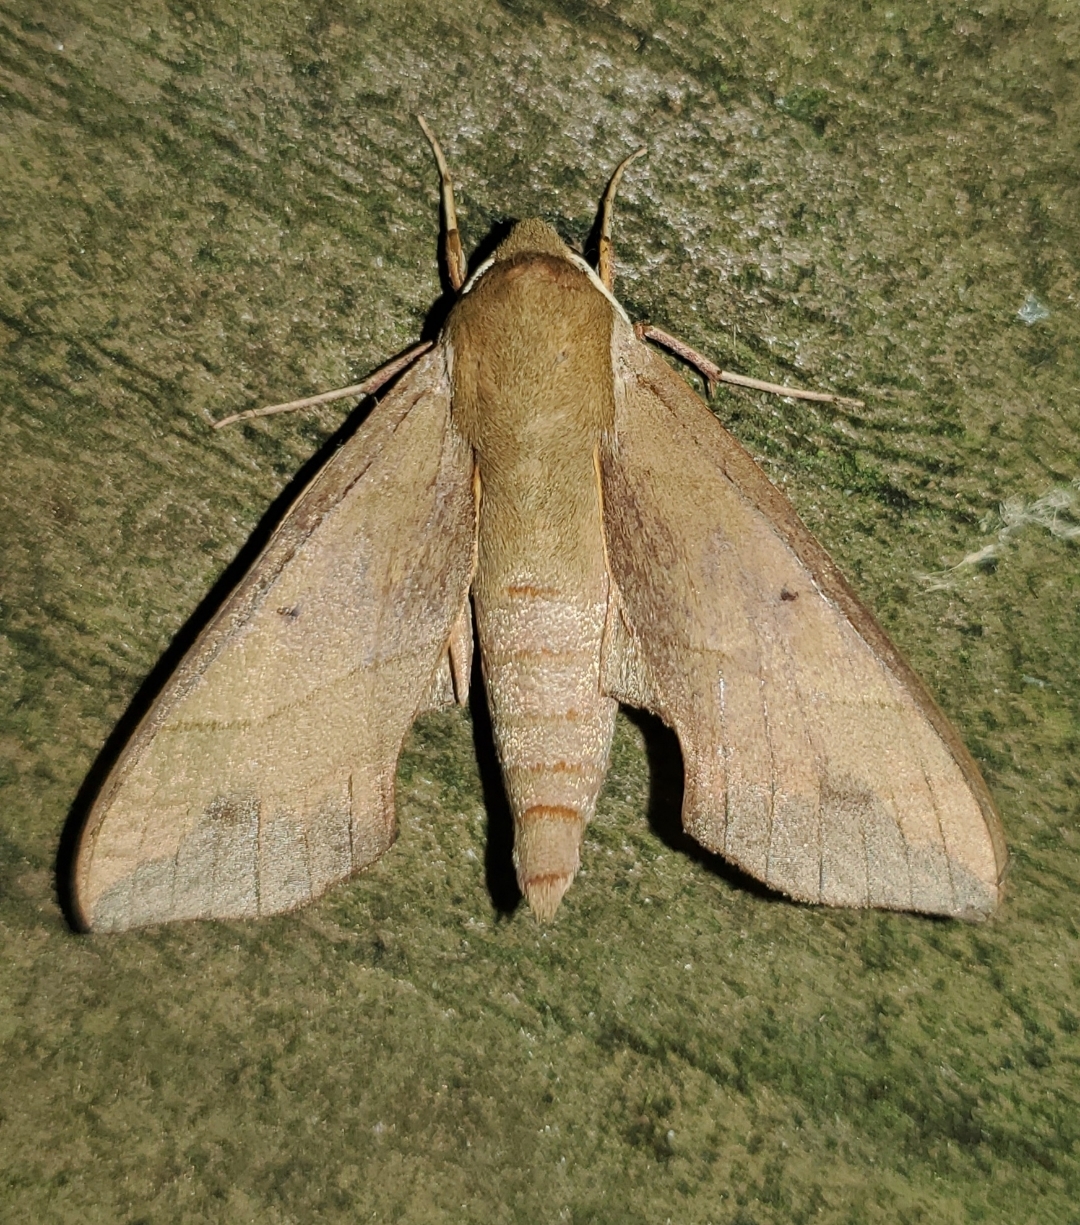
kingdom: Animalia
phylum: Arthropoda
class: Insecta
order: Lepidoptera
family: Sphingidae
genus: Darapsa
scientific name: Darapsa myron
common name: Hog sphinx
